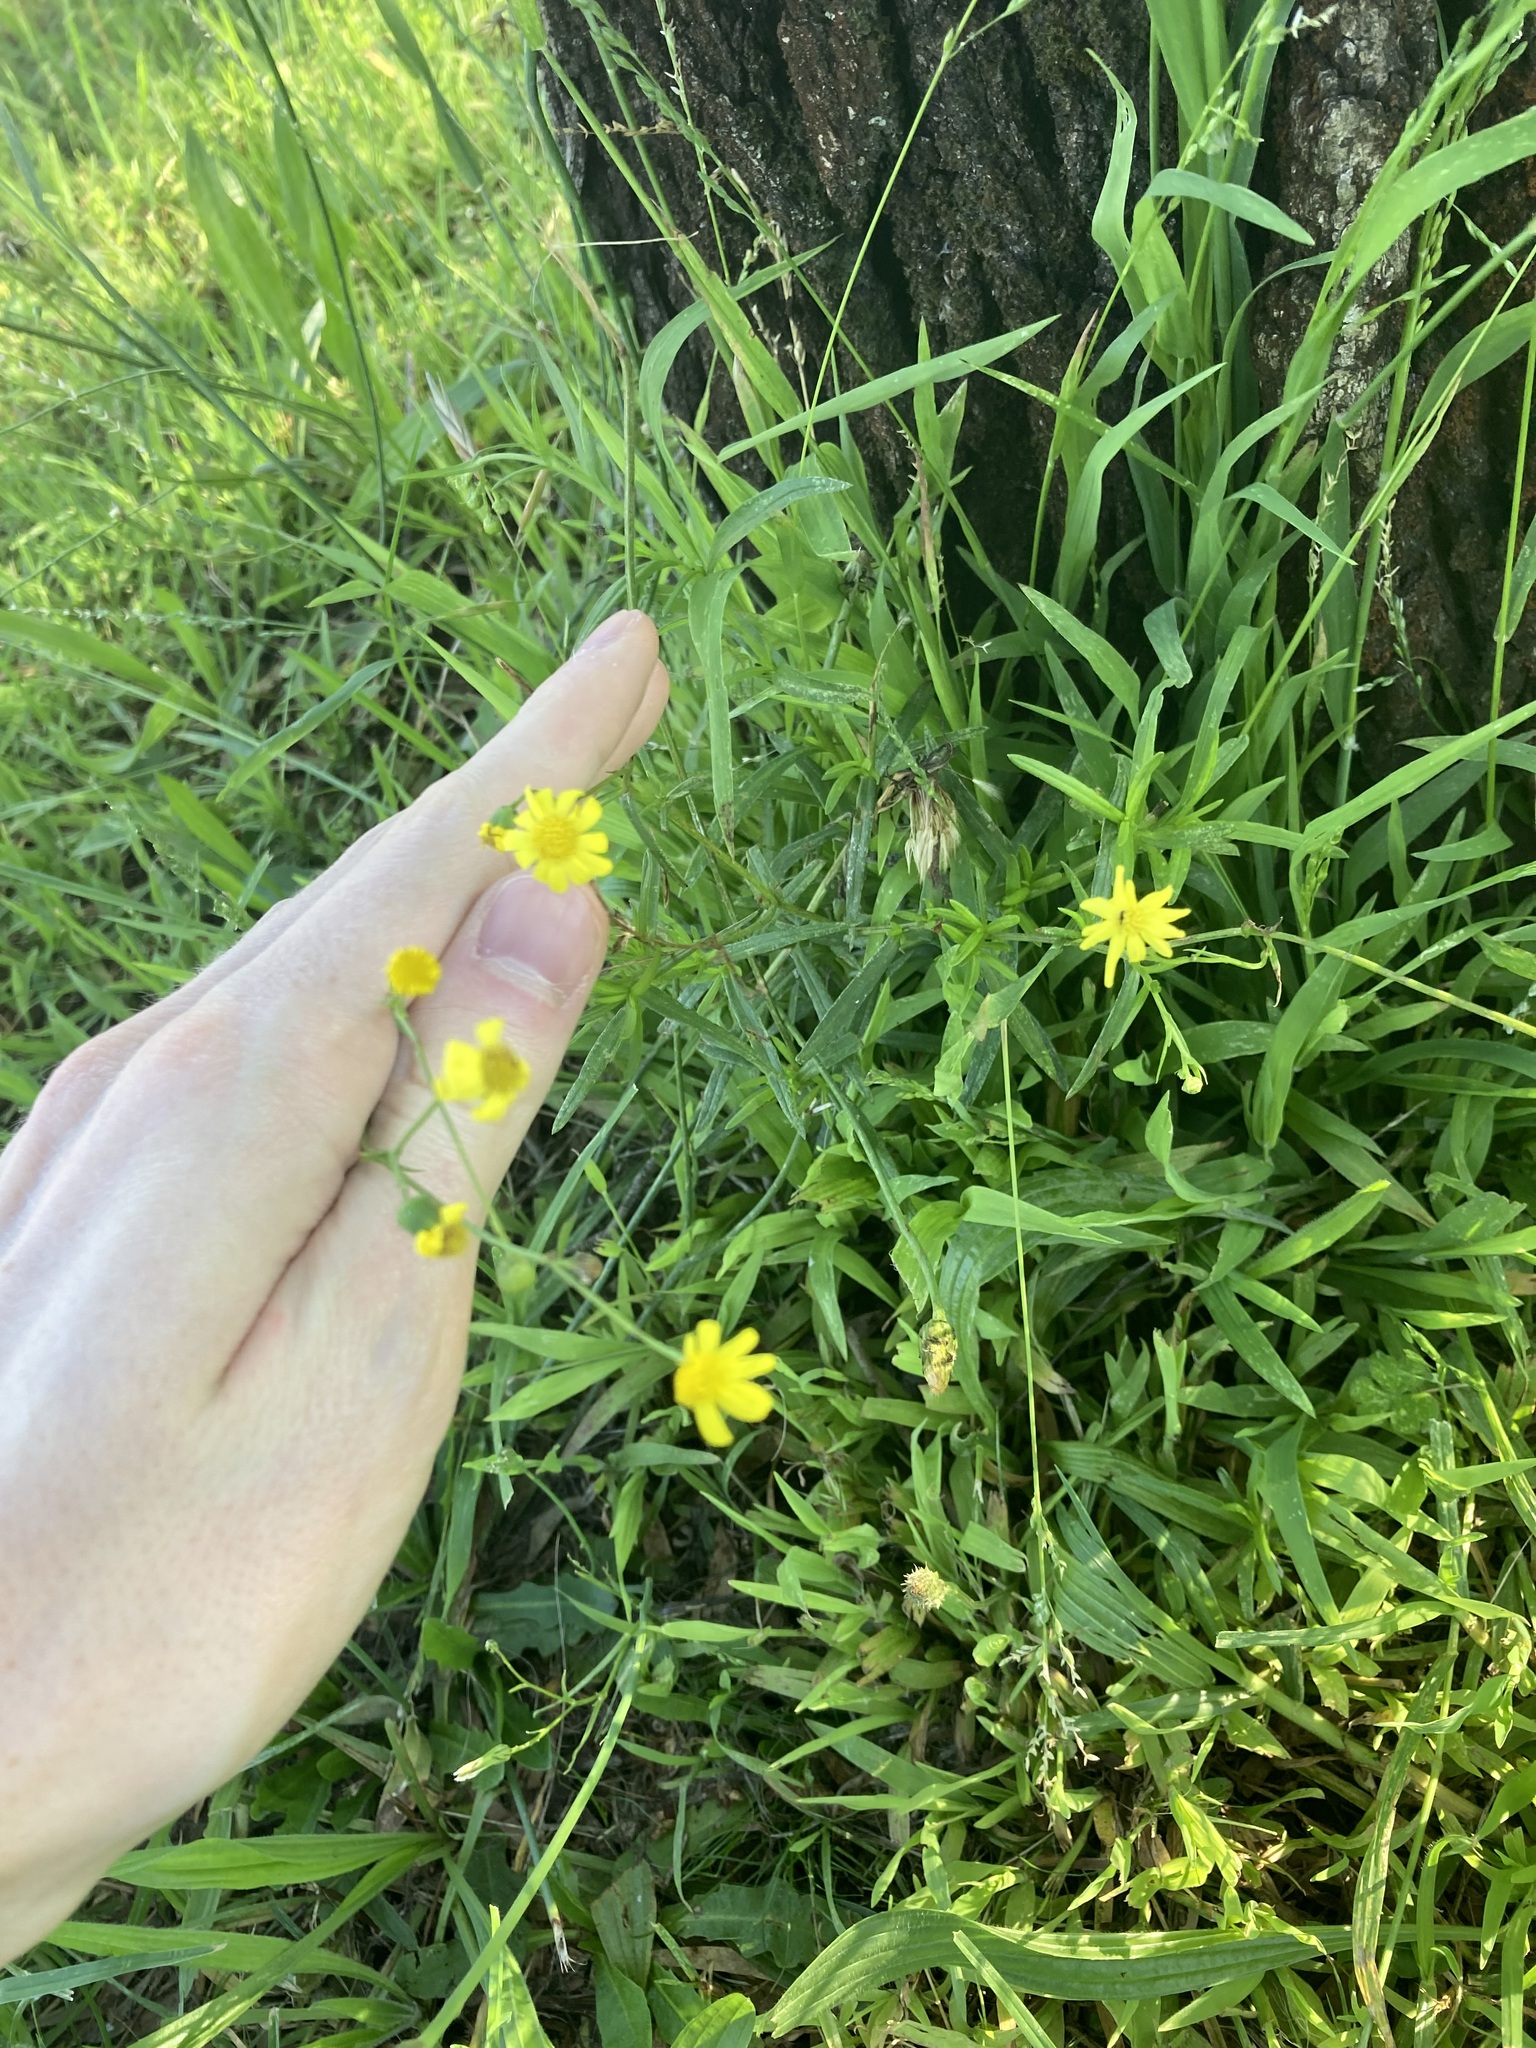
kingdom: Plantae
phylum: Tracheophyta
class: Magnoliopsida
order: Asterales
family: Asteraceae
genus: Senecio
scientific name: Senecio madagascariensis
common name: Madagascar ragwort
